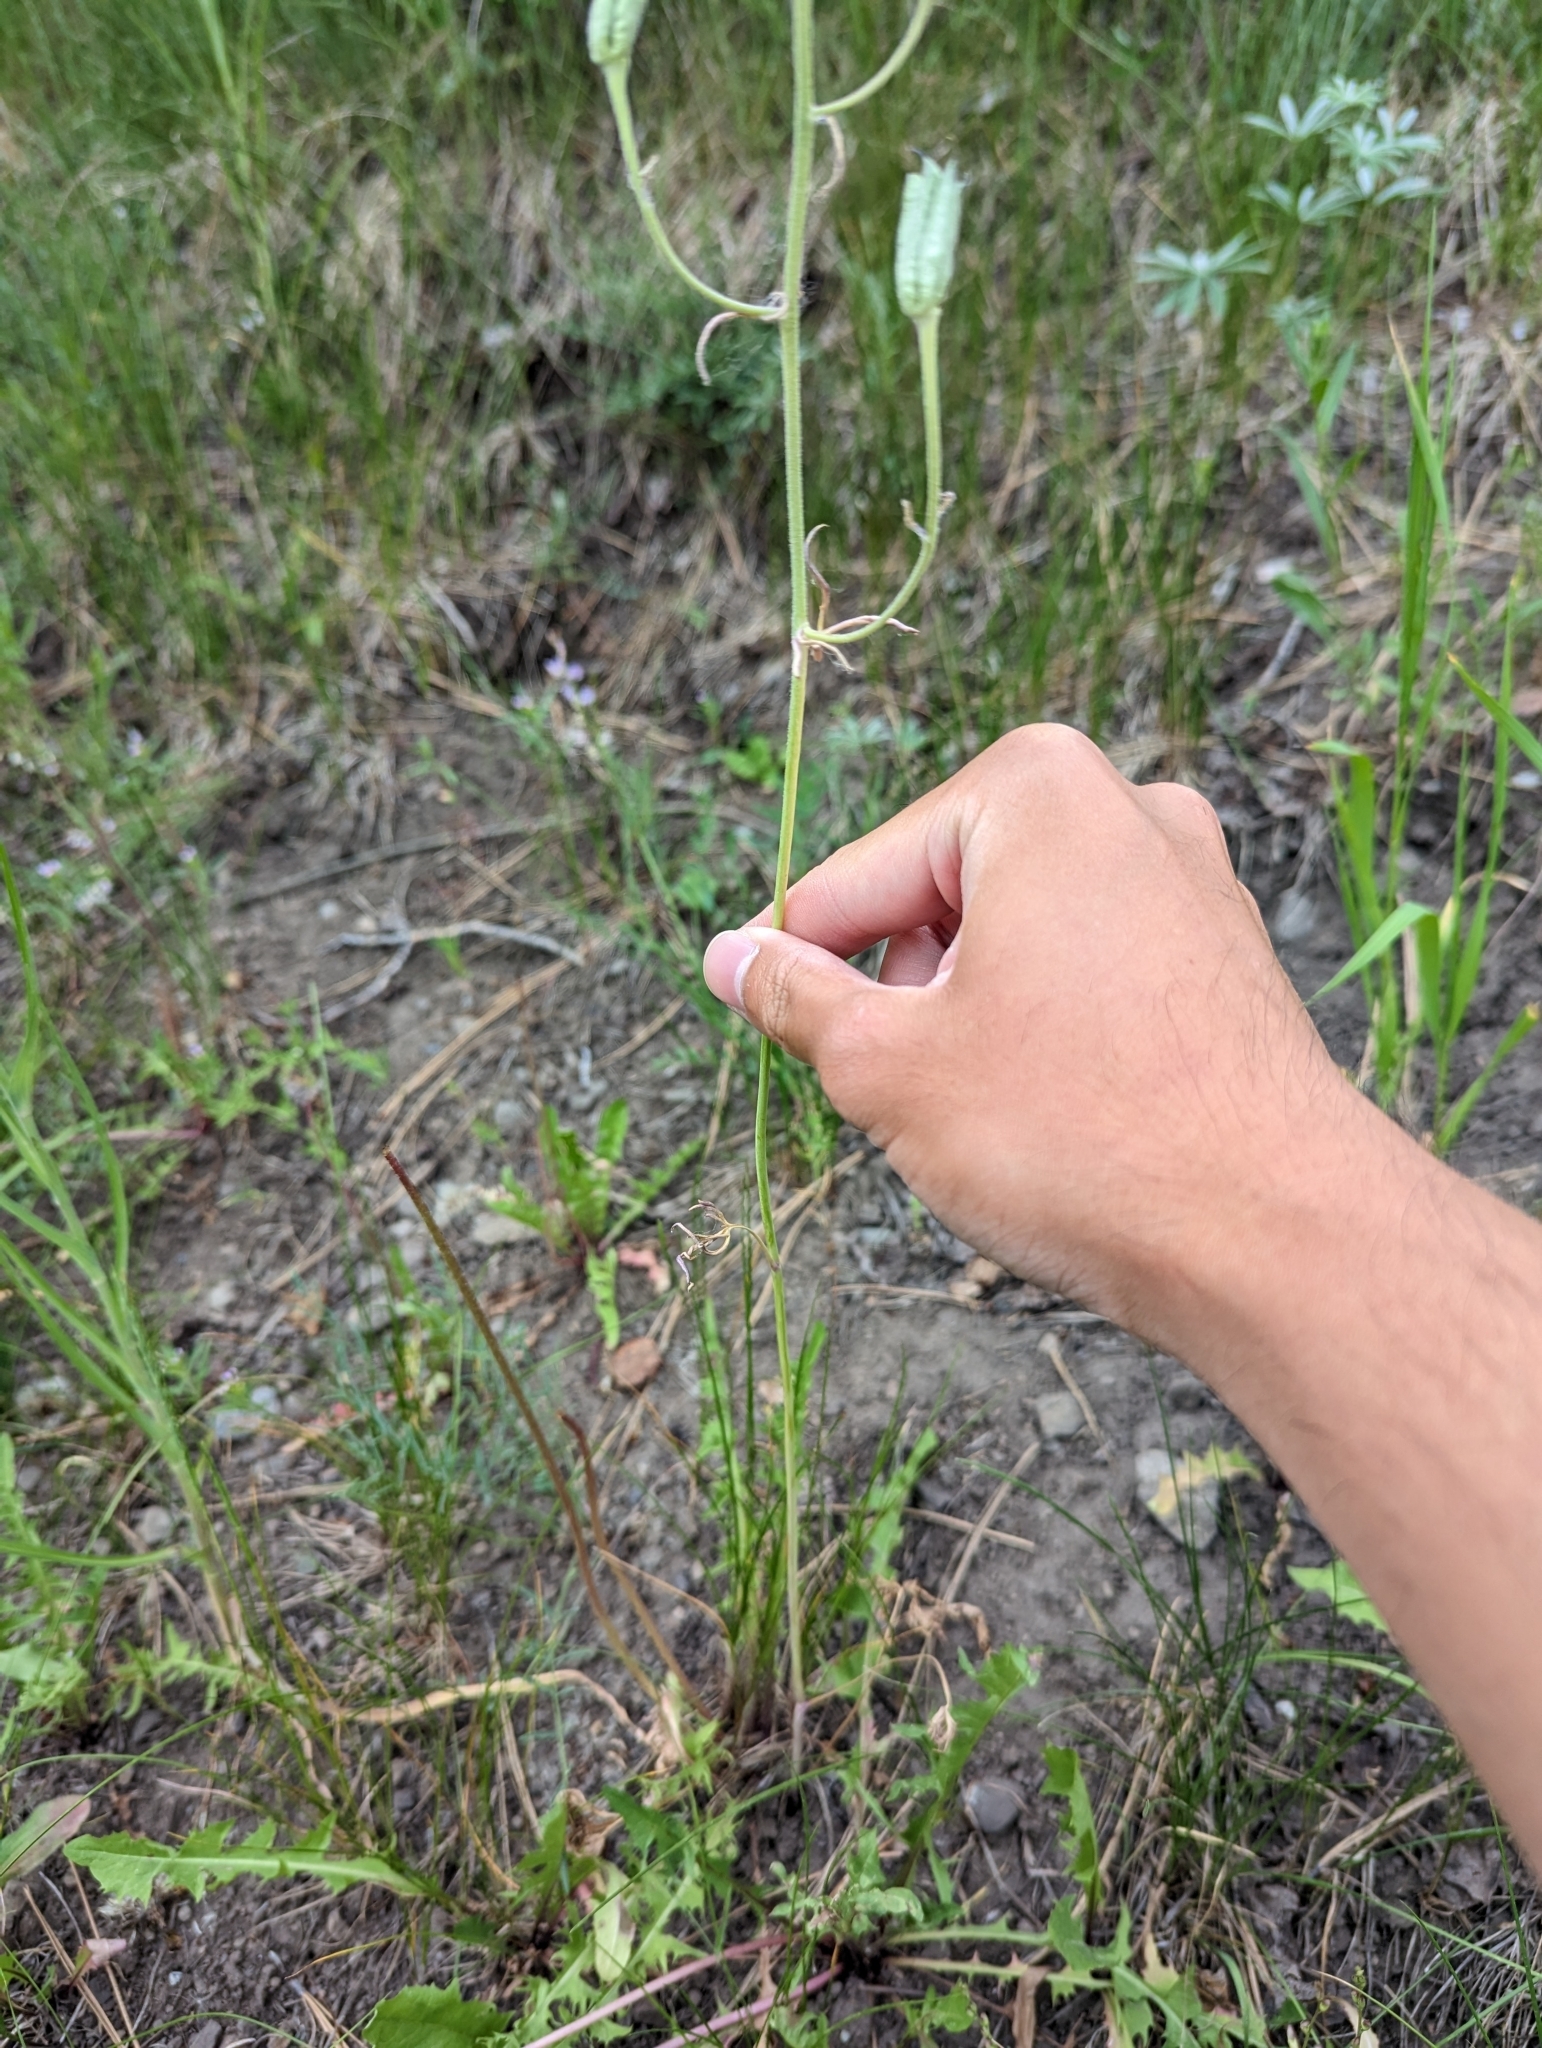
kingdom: Plantae
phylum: Tracheophyta
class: Magnoliopsida
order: Ranunculales
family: Ranunculaceae
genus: Delphinium
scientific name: Delphinium nuttallianum
